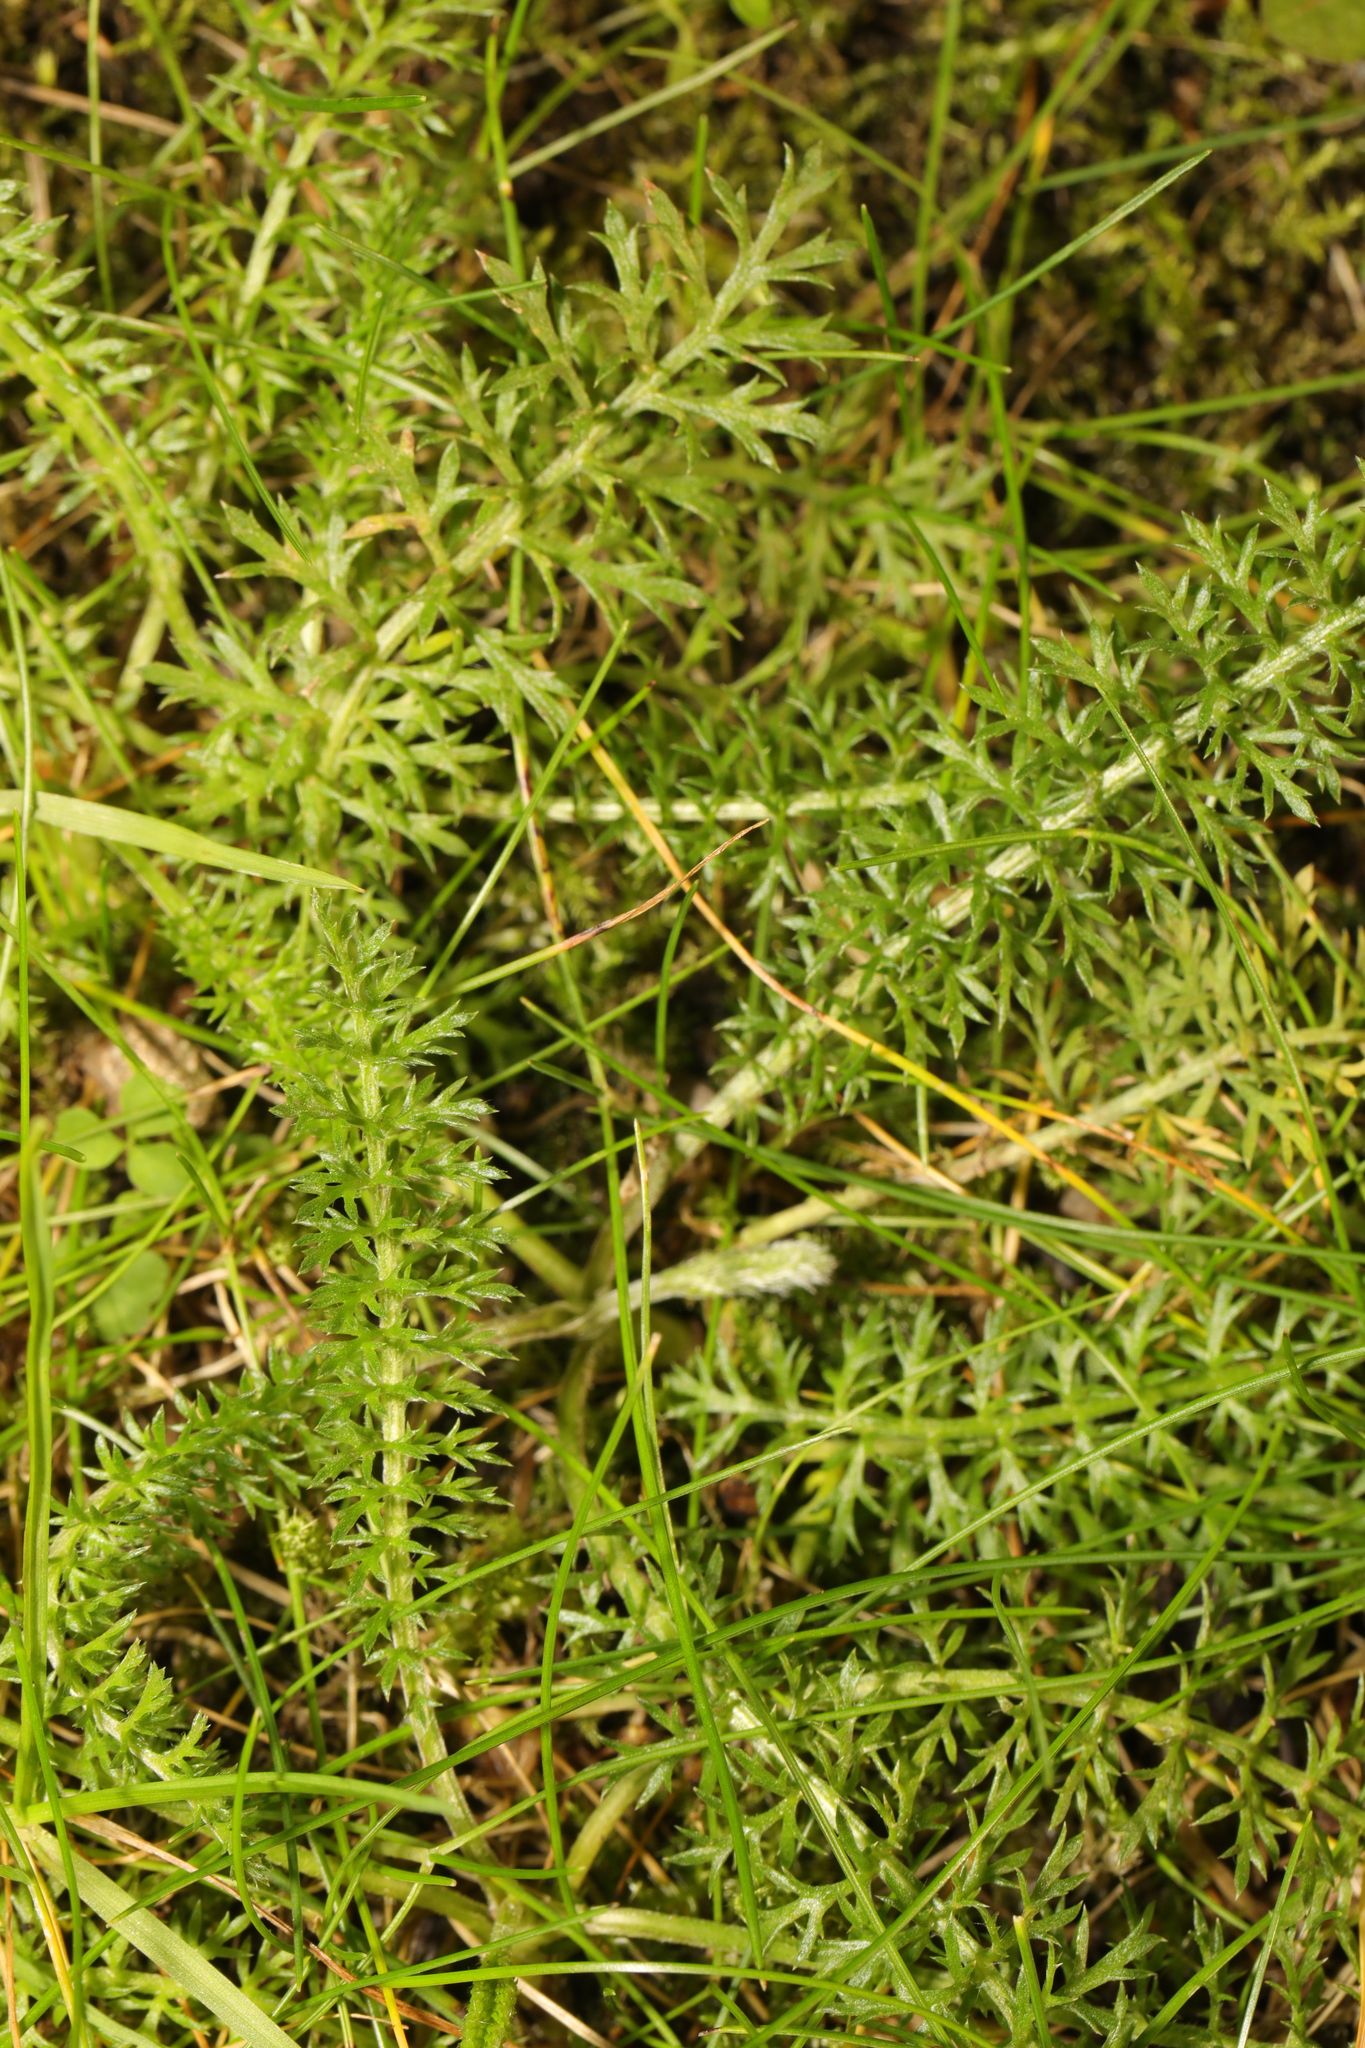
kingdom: Plantae
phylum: Tracheophyta
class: Magnoliopsida
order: Asterales
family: Asteraceae
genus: Achillea
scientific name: Achillea millefolium
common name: Yarrow
